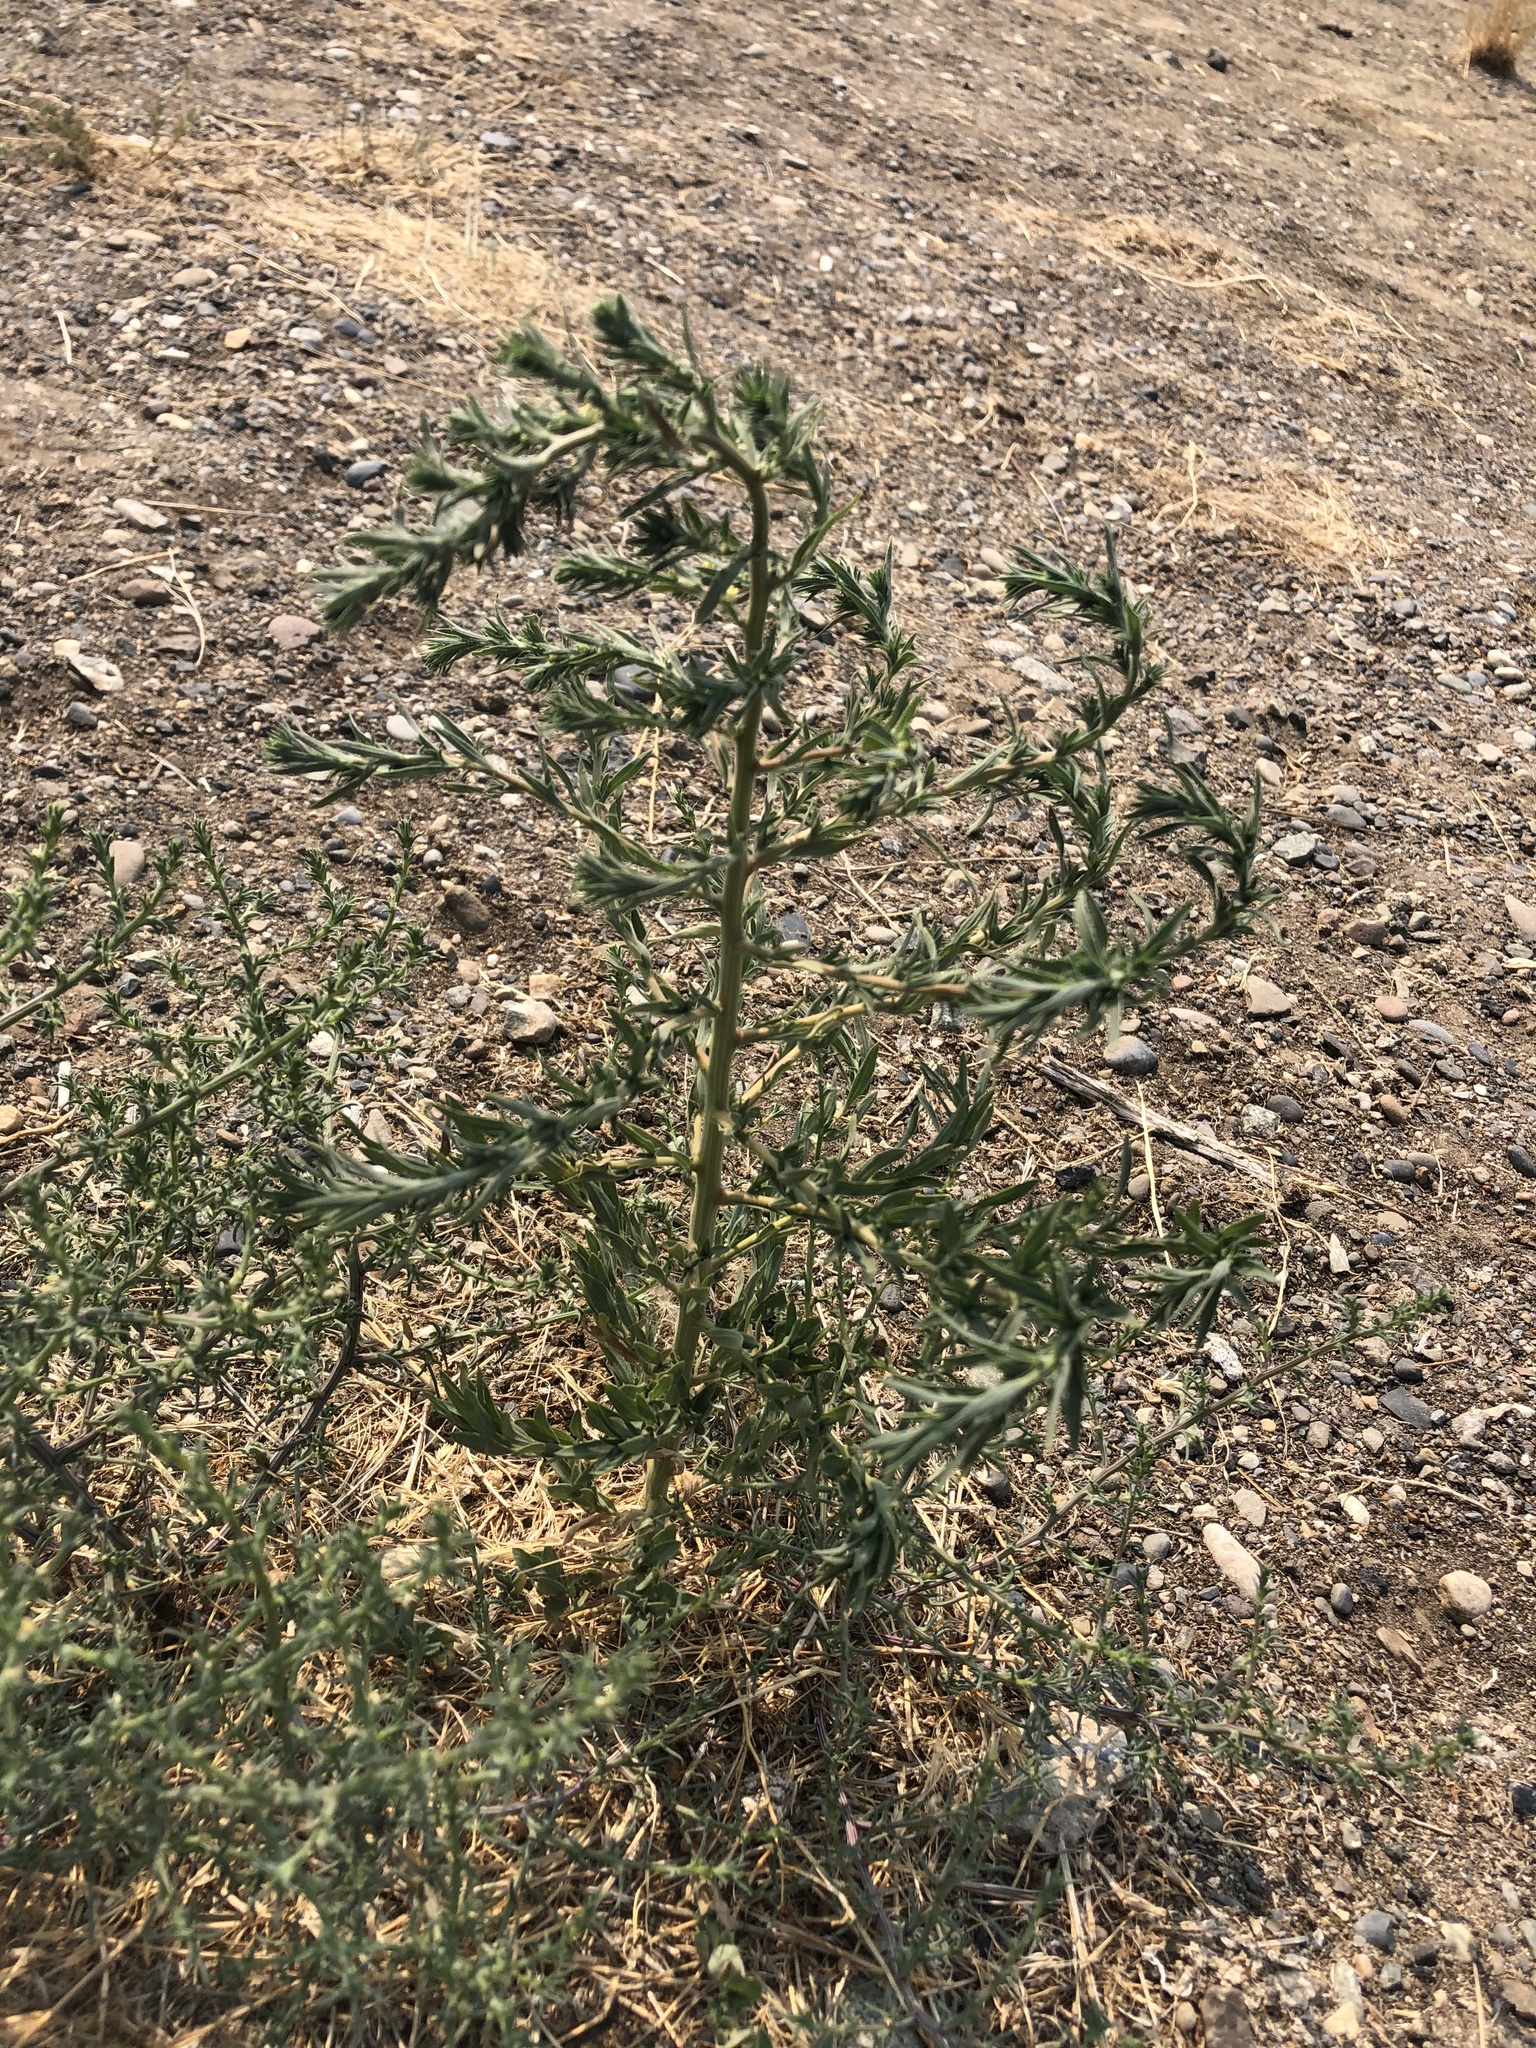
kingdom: Plantae
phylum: Tracheophyta
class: Magnoliopsida
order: Caryophyllales
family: Amaranthaceae
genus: Bassia
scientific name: Bassia scoparia
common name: Belvedere
